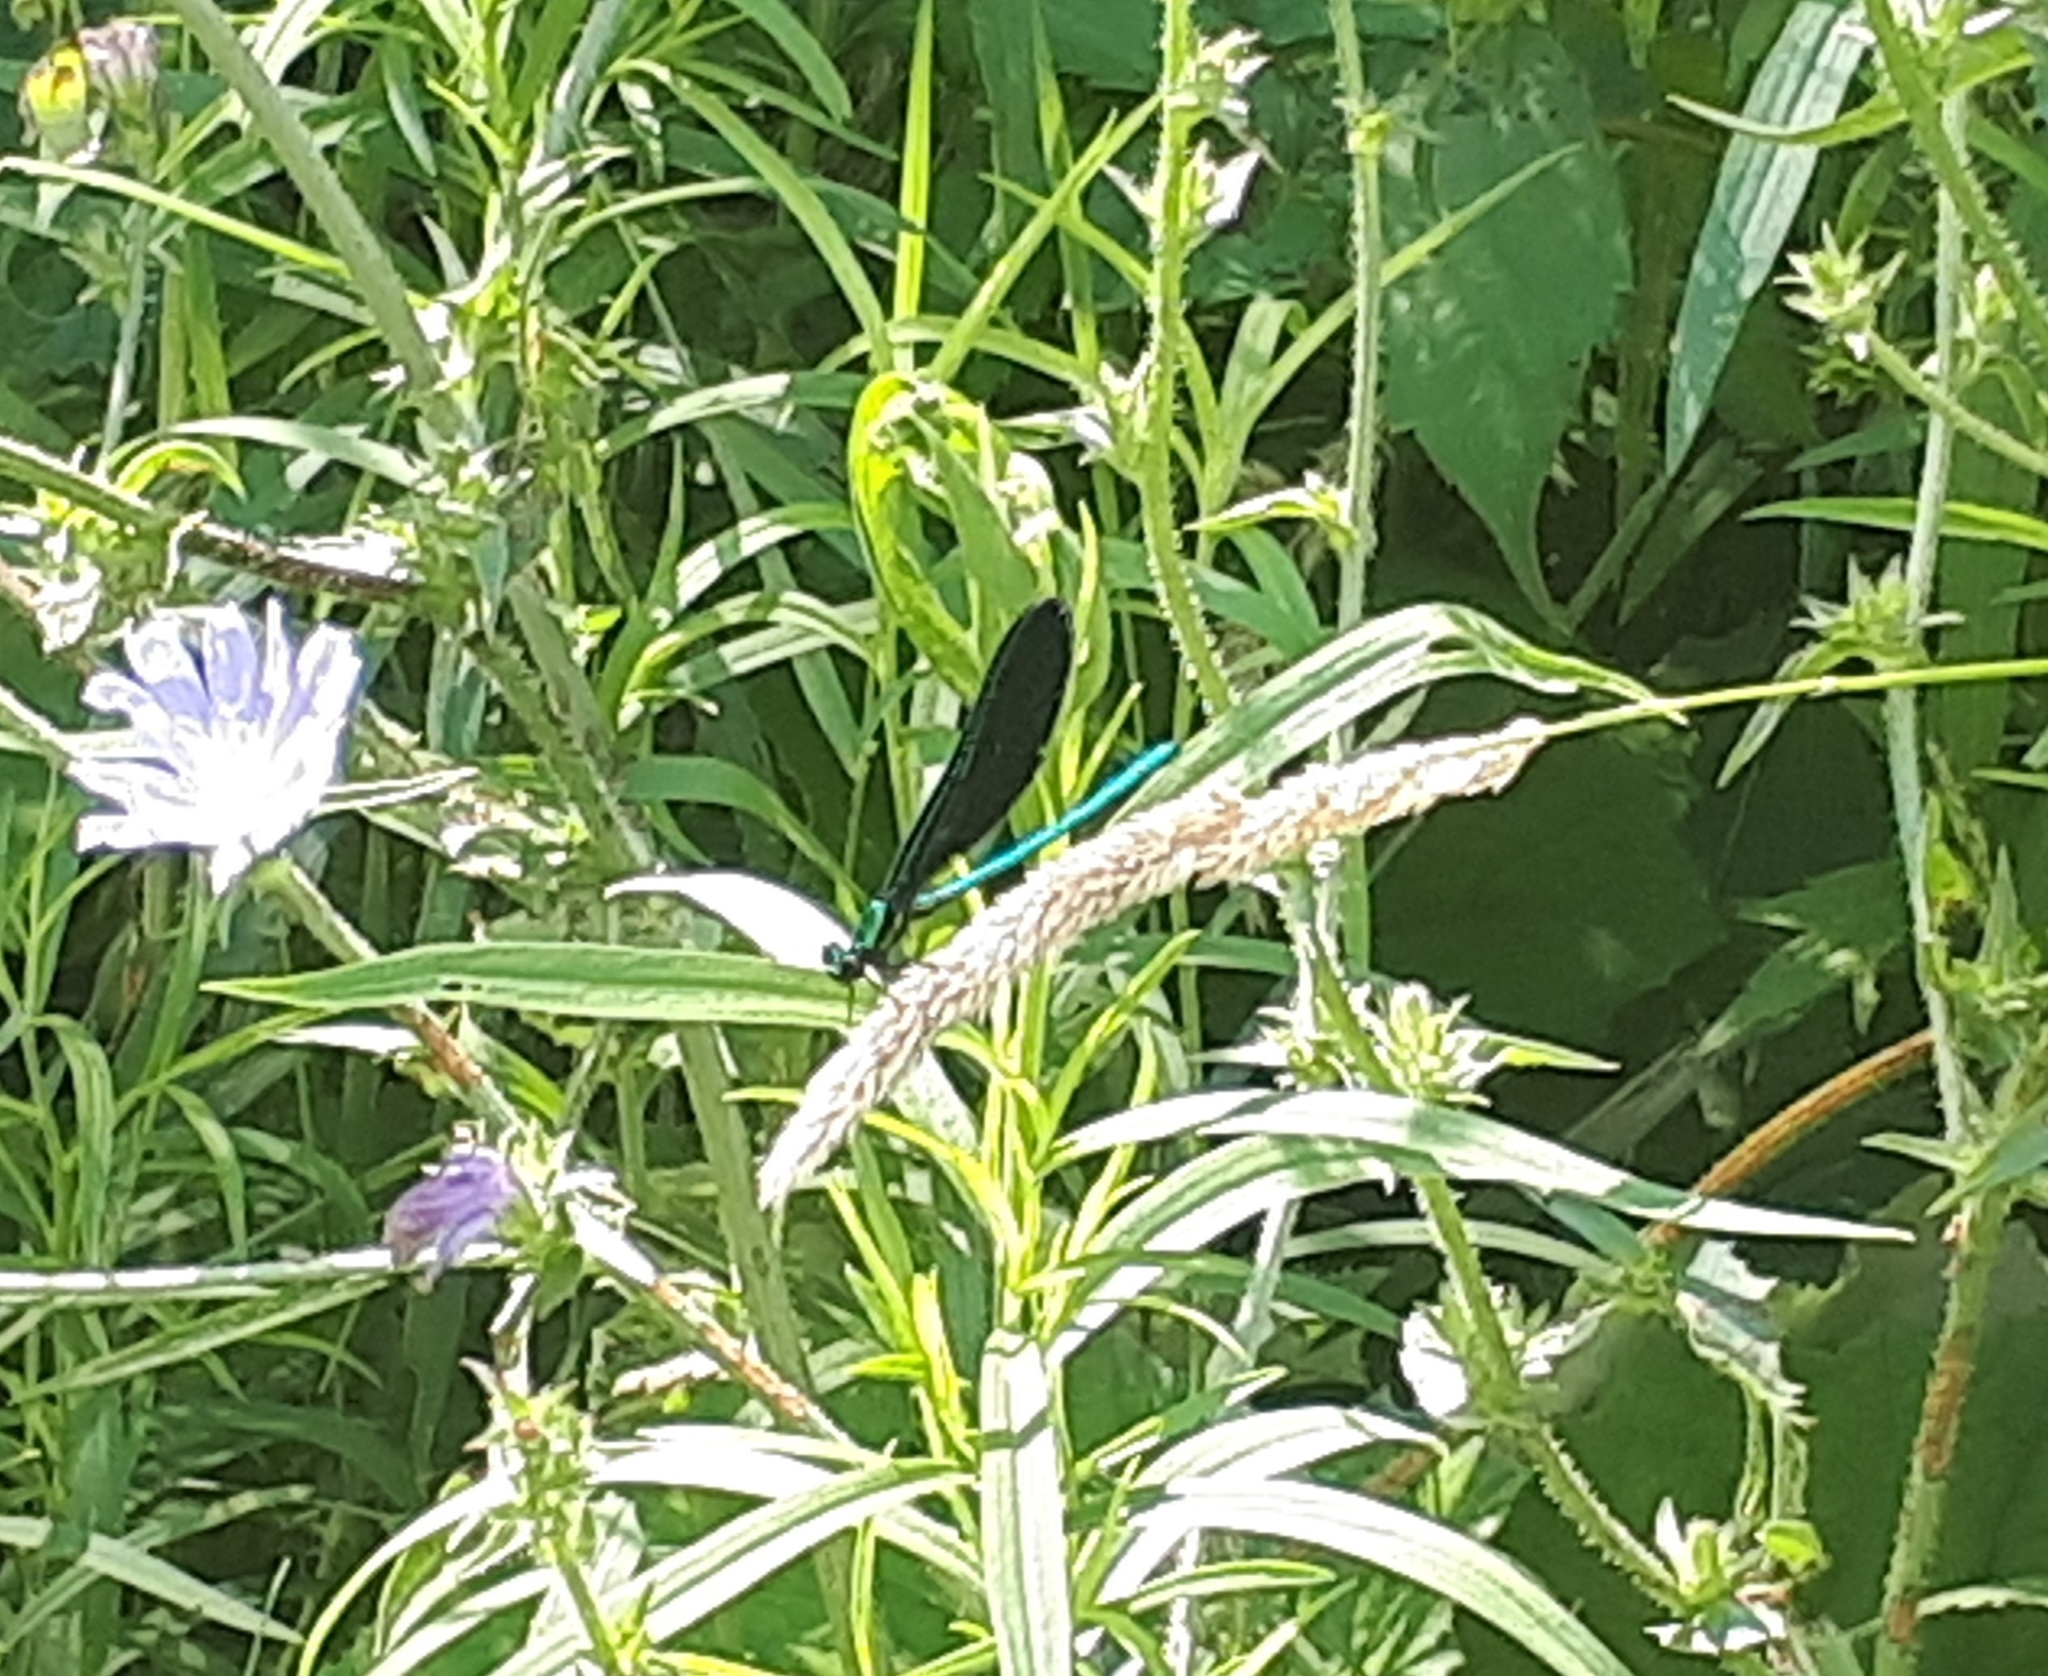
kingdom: Animalia
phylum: Arthropoda
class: Insecta
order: Odonata
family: Calopterygidae
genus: Calopteryx
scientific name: Calopteryx maculata
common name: Ebony jewelwing
